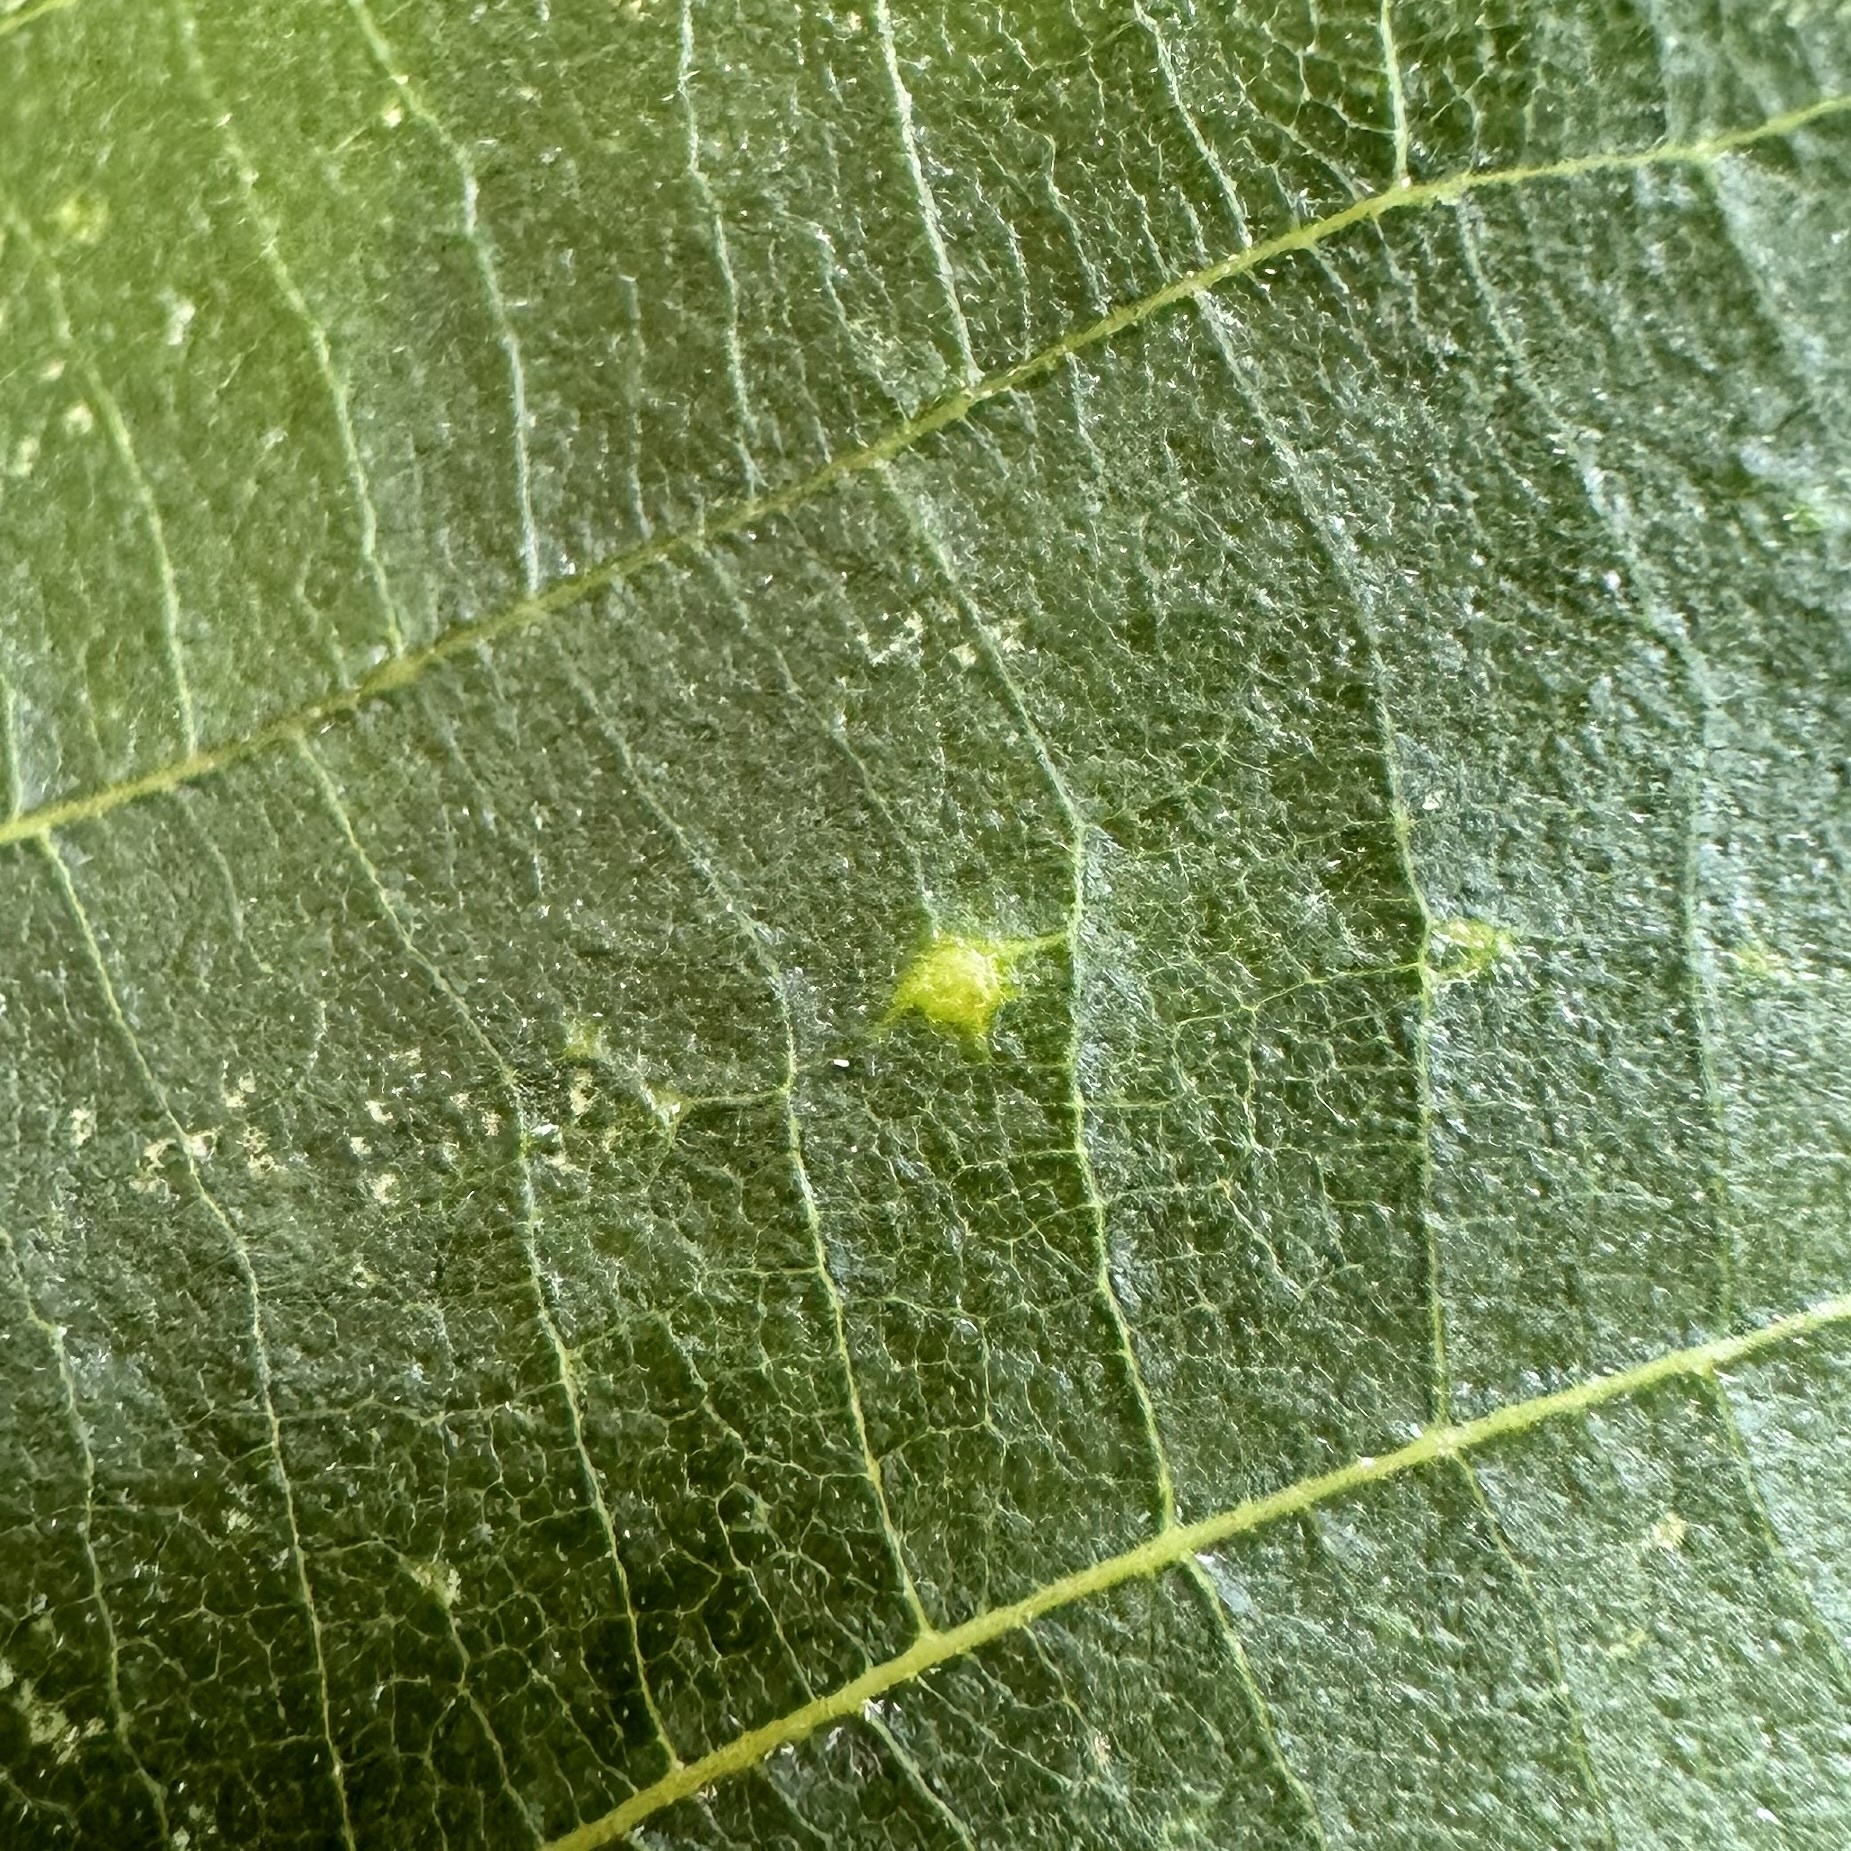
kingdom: Animalia
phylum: Arthropoda
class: Insecta
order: Diptera
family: Cecidomyiidae
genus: Caryomyia
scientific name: Caryomyia stellata
